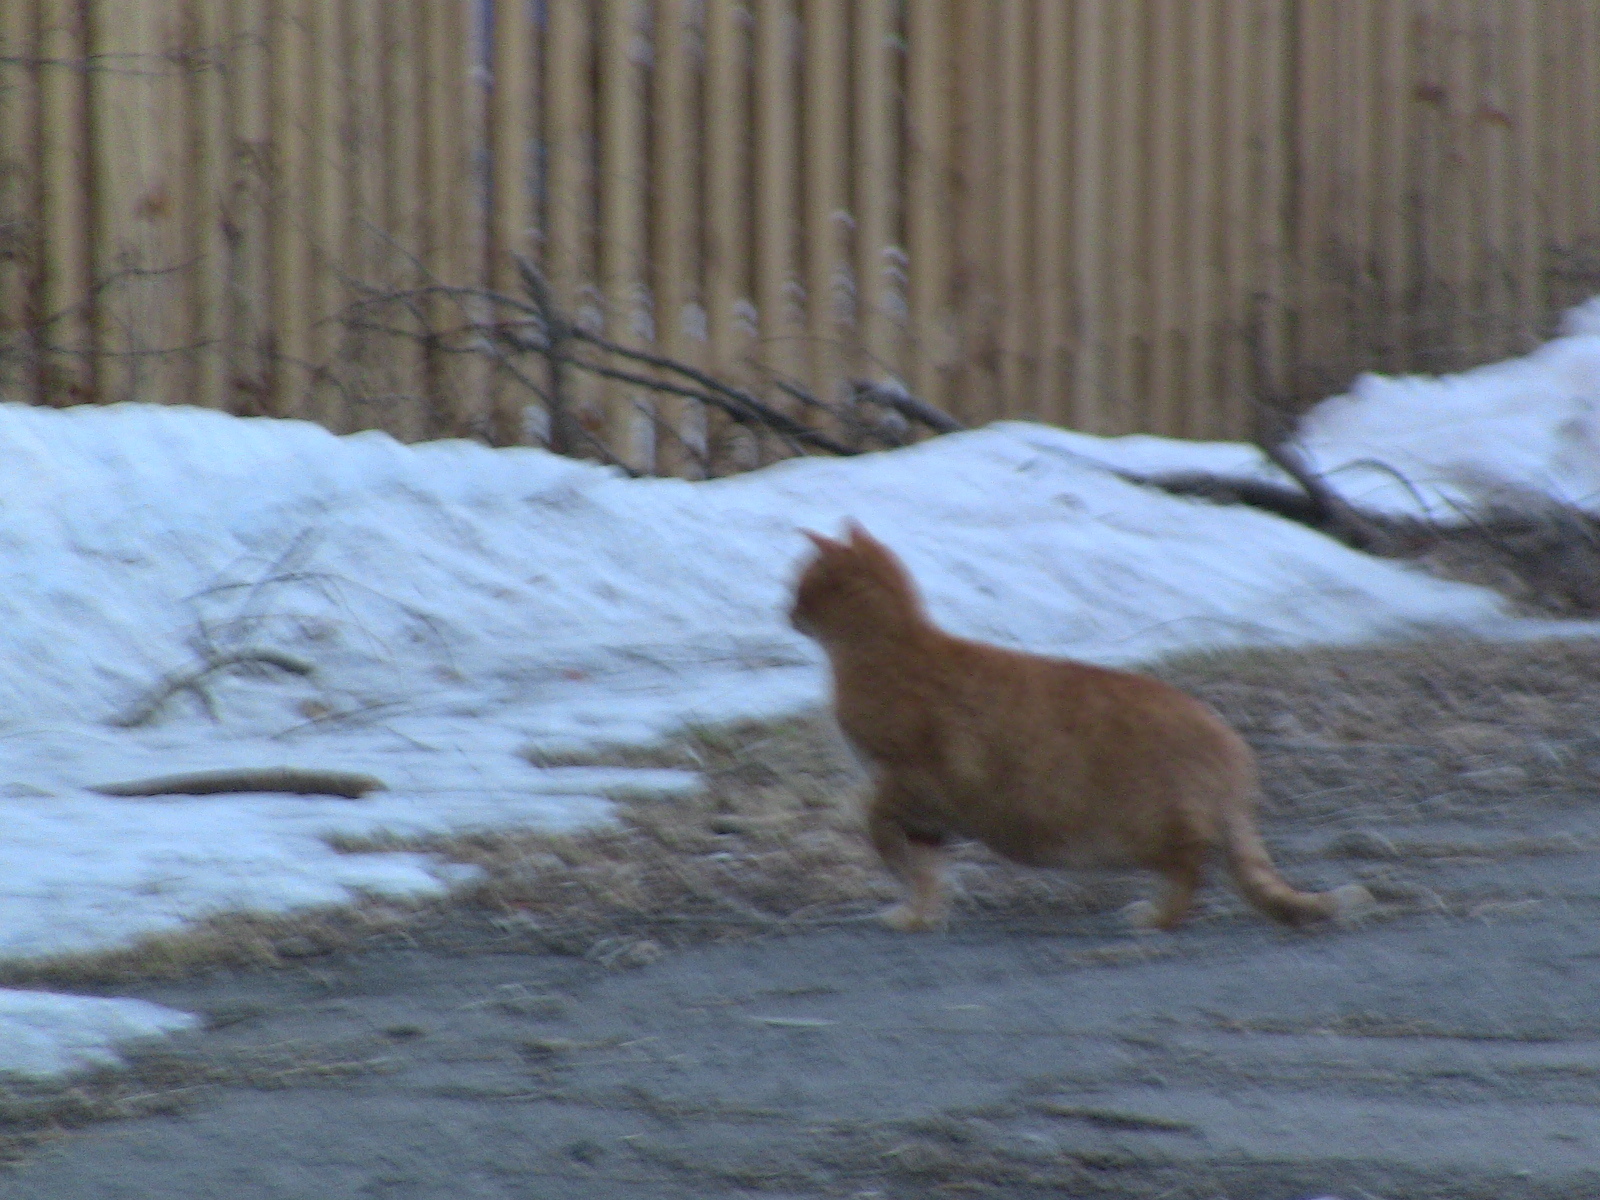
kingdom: Animalia
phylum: Chordata
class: Mammalia
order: Carnivora
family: Felidae
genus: Felis
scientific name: Felis catus
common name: Domestic cat
